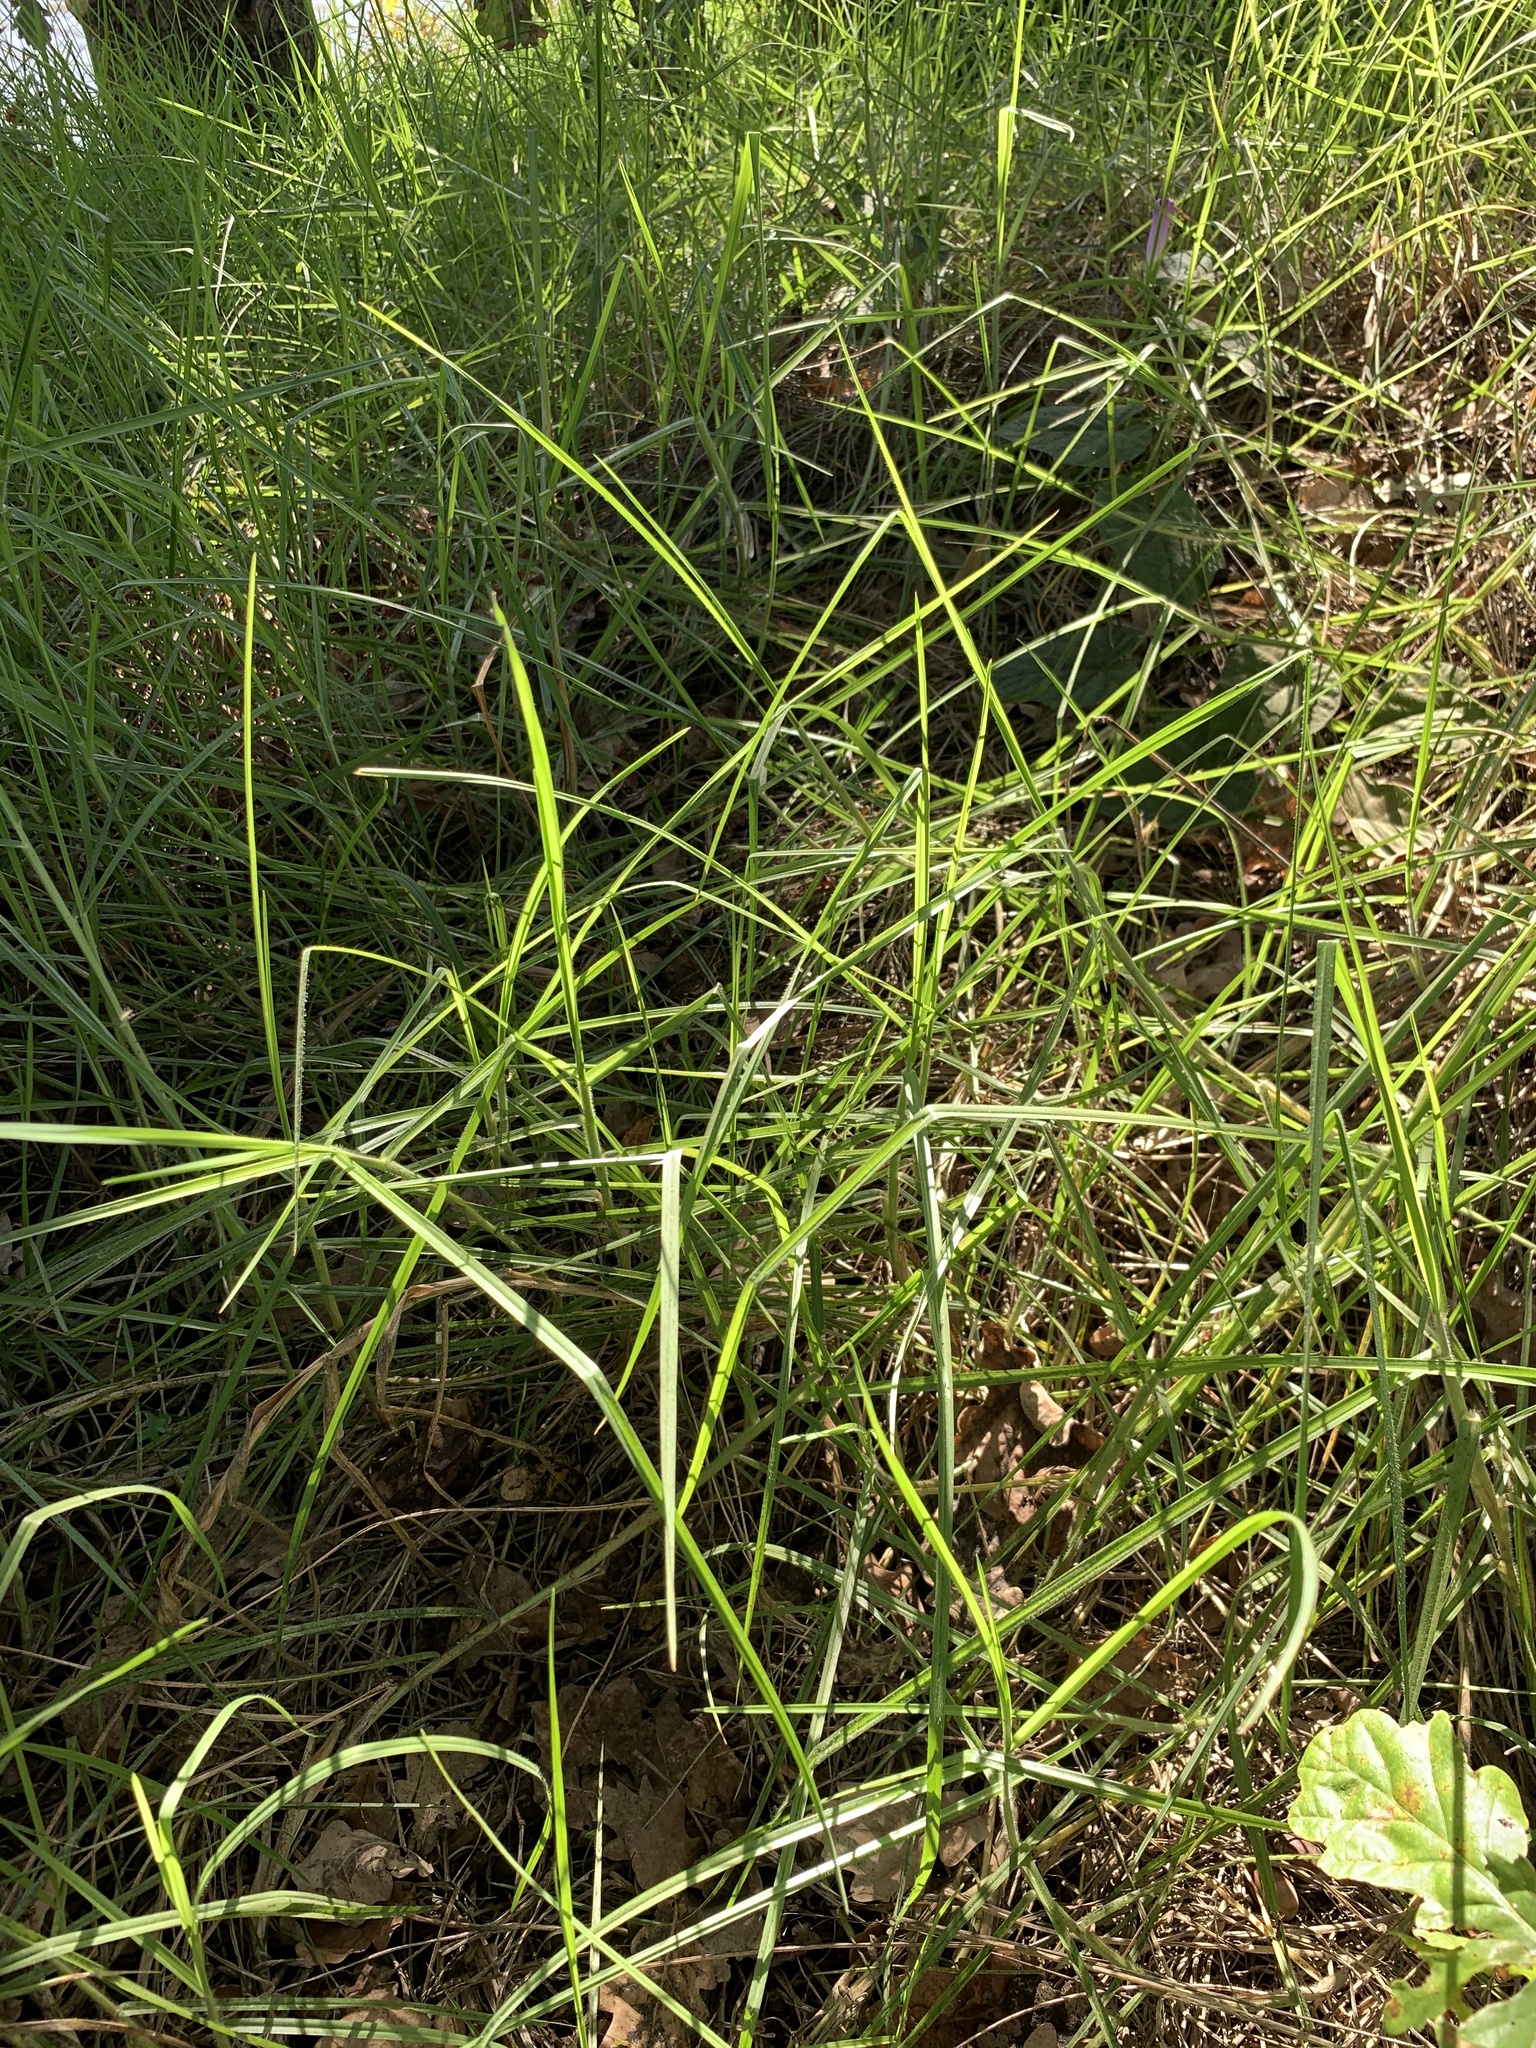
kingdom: Plantae
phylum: Tracheophyta
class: Liliopsida
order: Poales
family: Poaceae
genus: Cenchrus
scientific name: Cenchrus clandestinus
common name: Kikuyugrass
